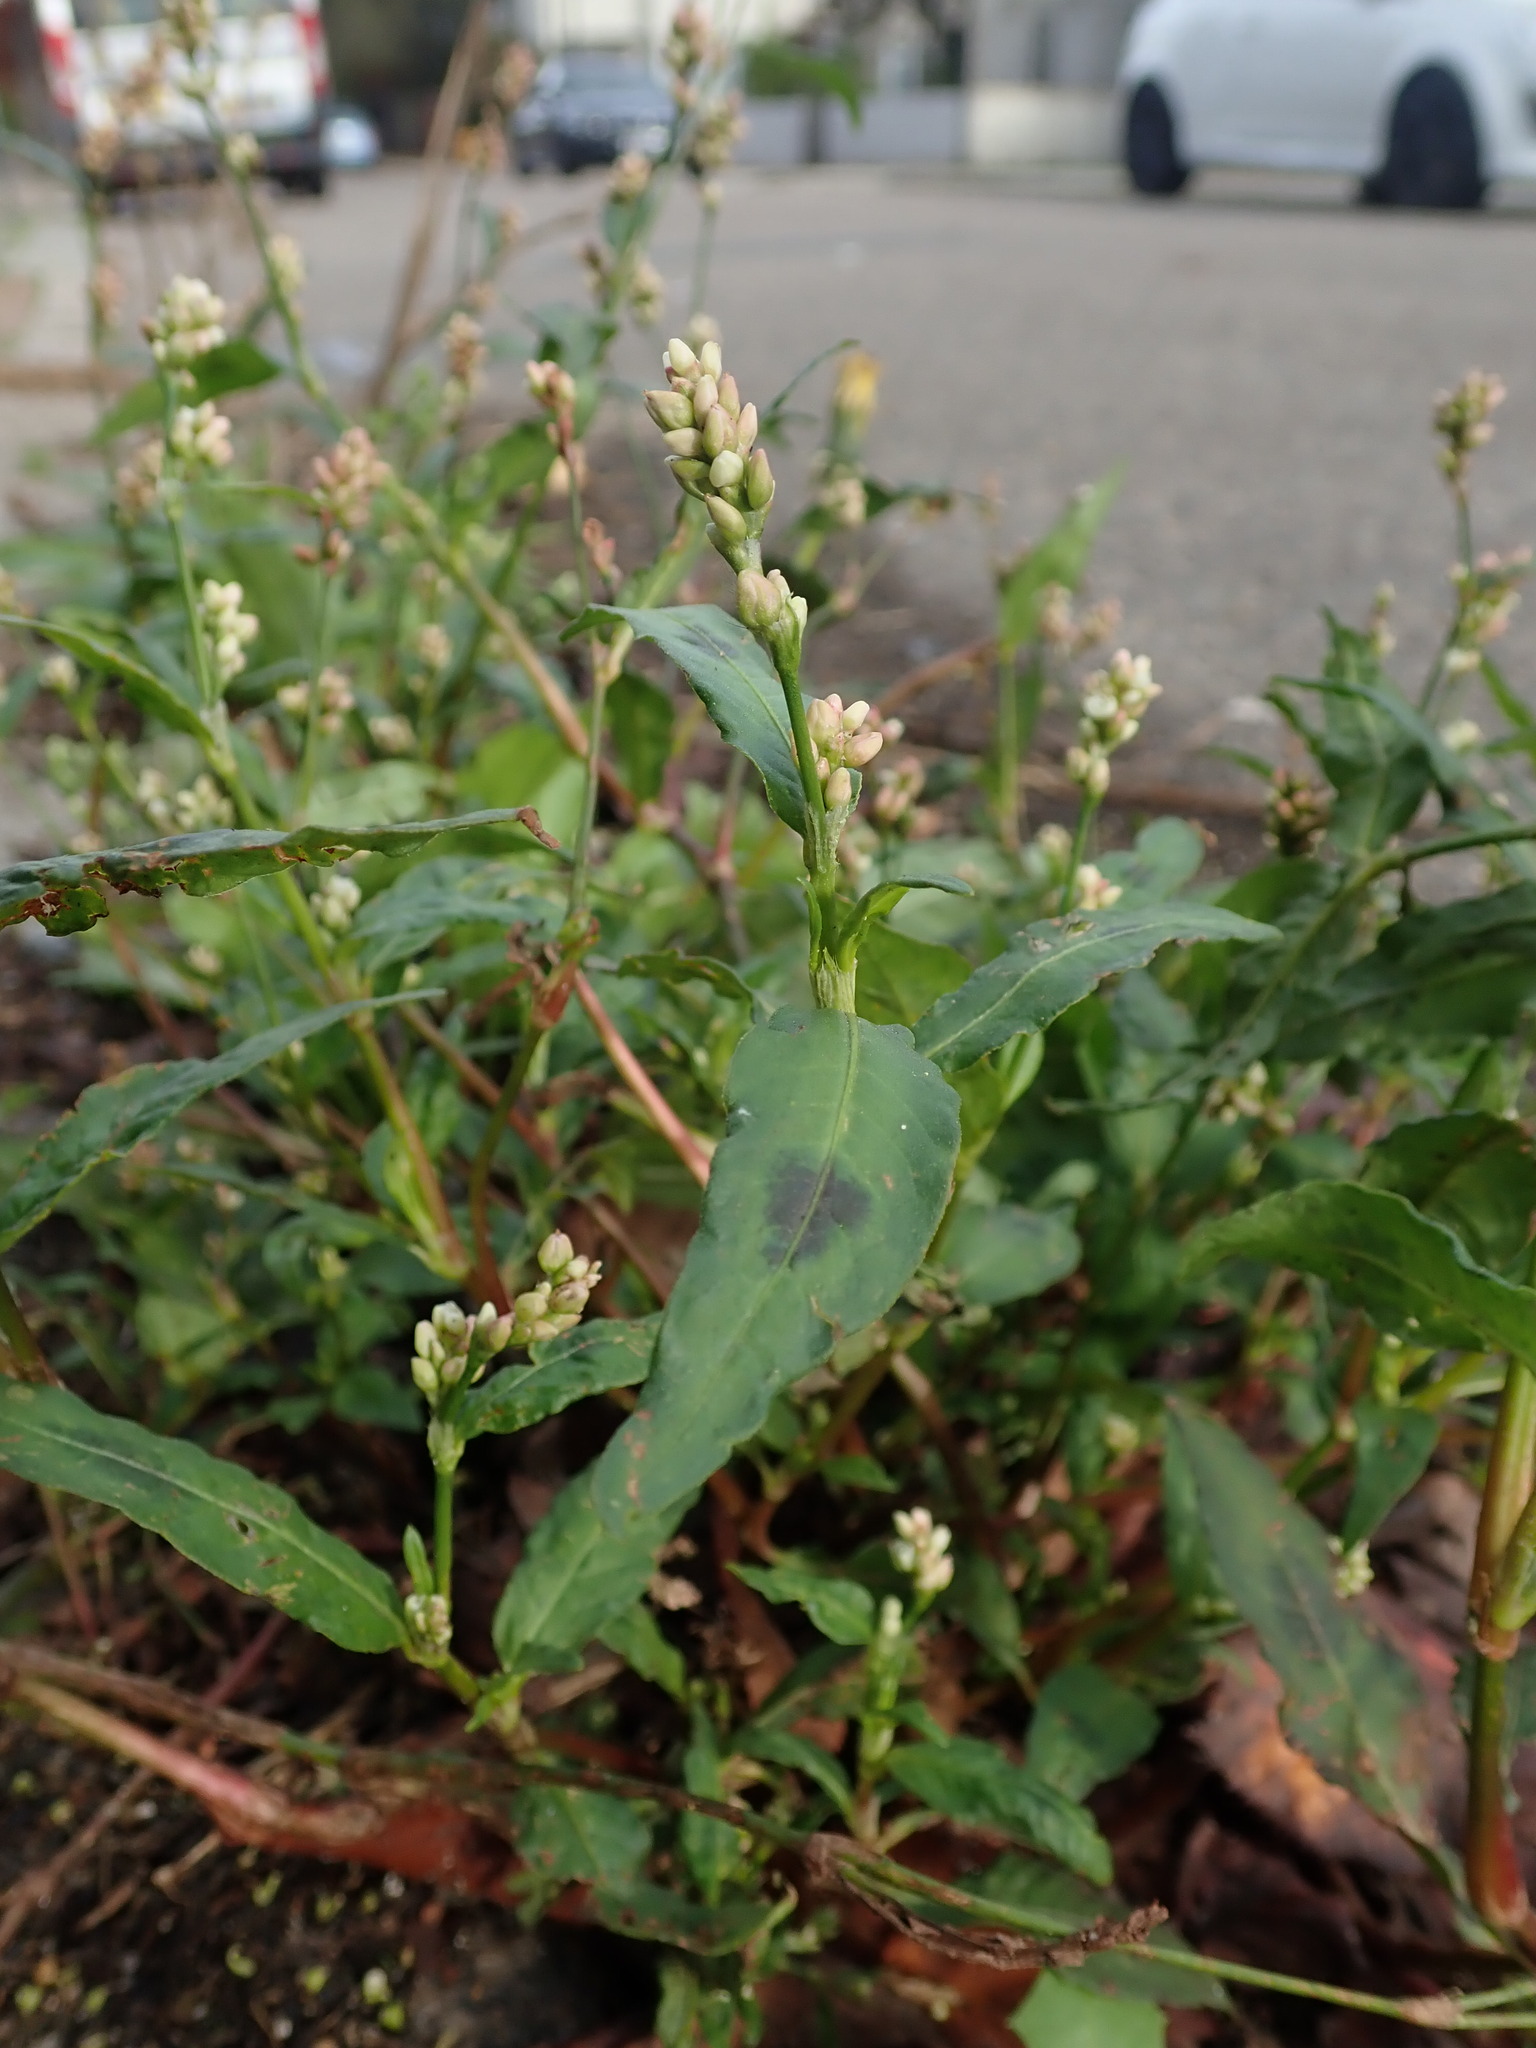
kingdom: Plantae
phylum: Tracheophyta
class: Magnoliopsida
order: Caryophyllales
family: Polygonaceae
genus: Persicaria
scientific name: Persicaria maculosa
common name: Redshank
